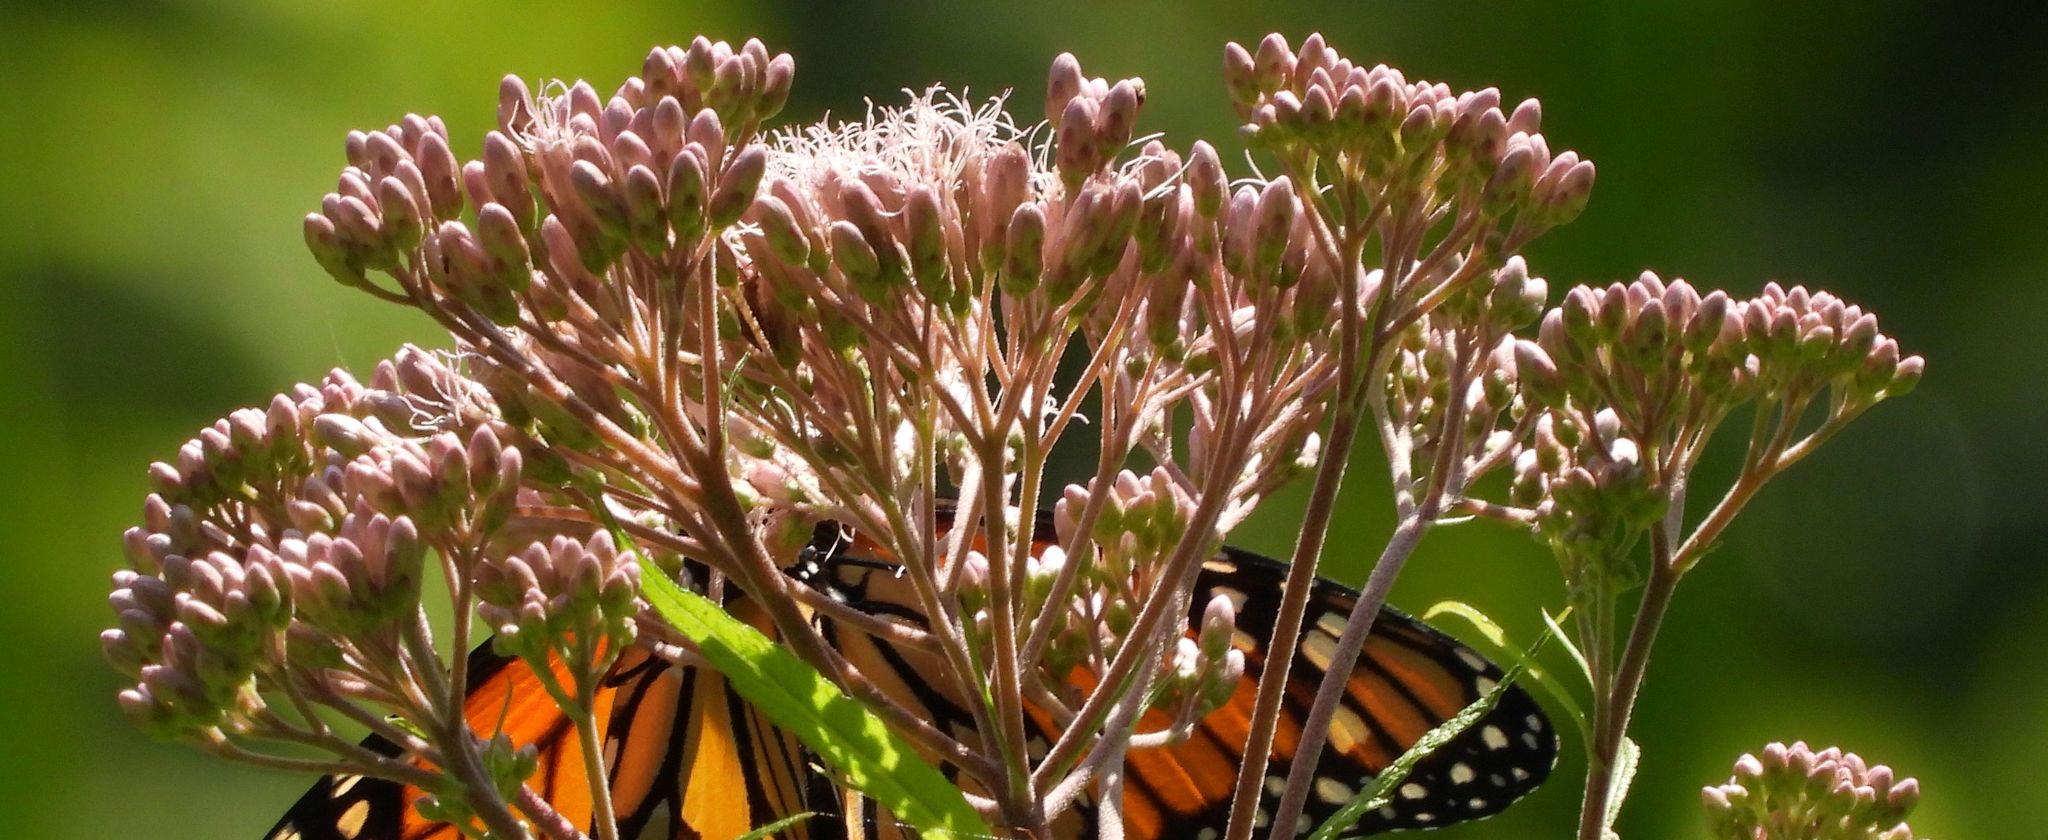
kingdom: Plantae
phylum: Tracheophyta
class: Magnoliopsida
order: Asterales
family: Asteraceae
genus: Eutrochium
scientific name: Eutrochium maculatum
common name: Spotted joe pye weed
